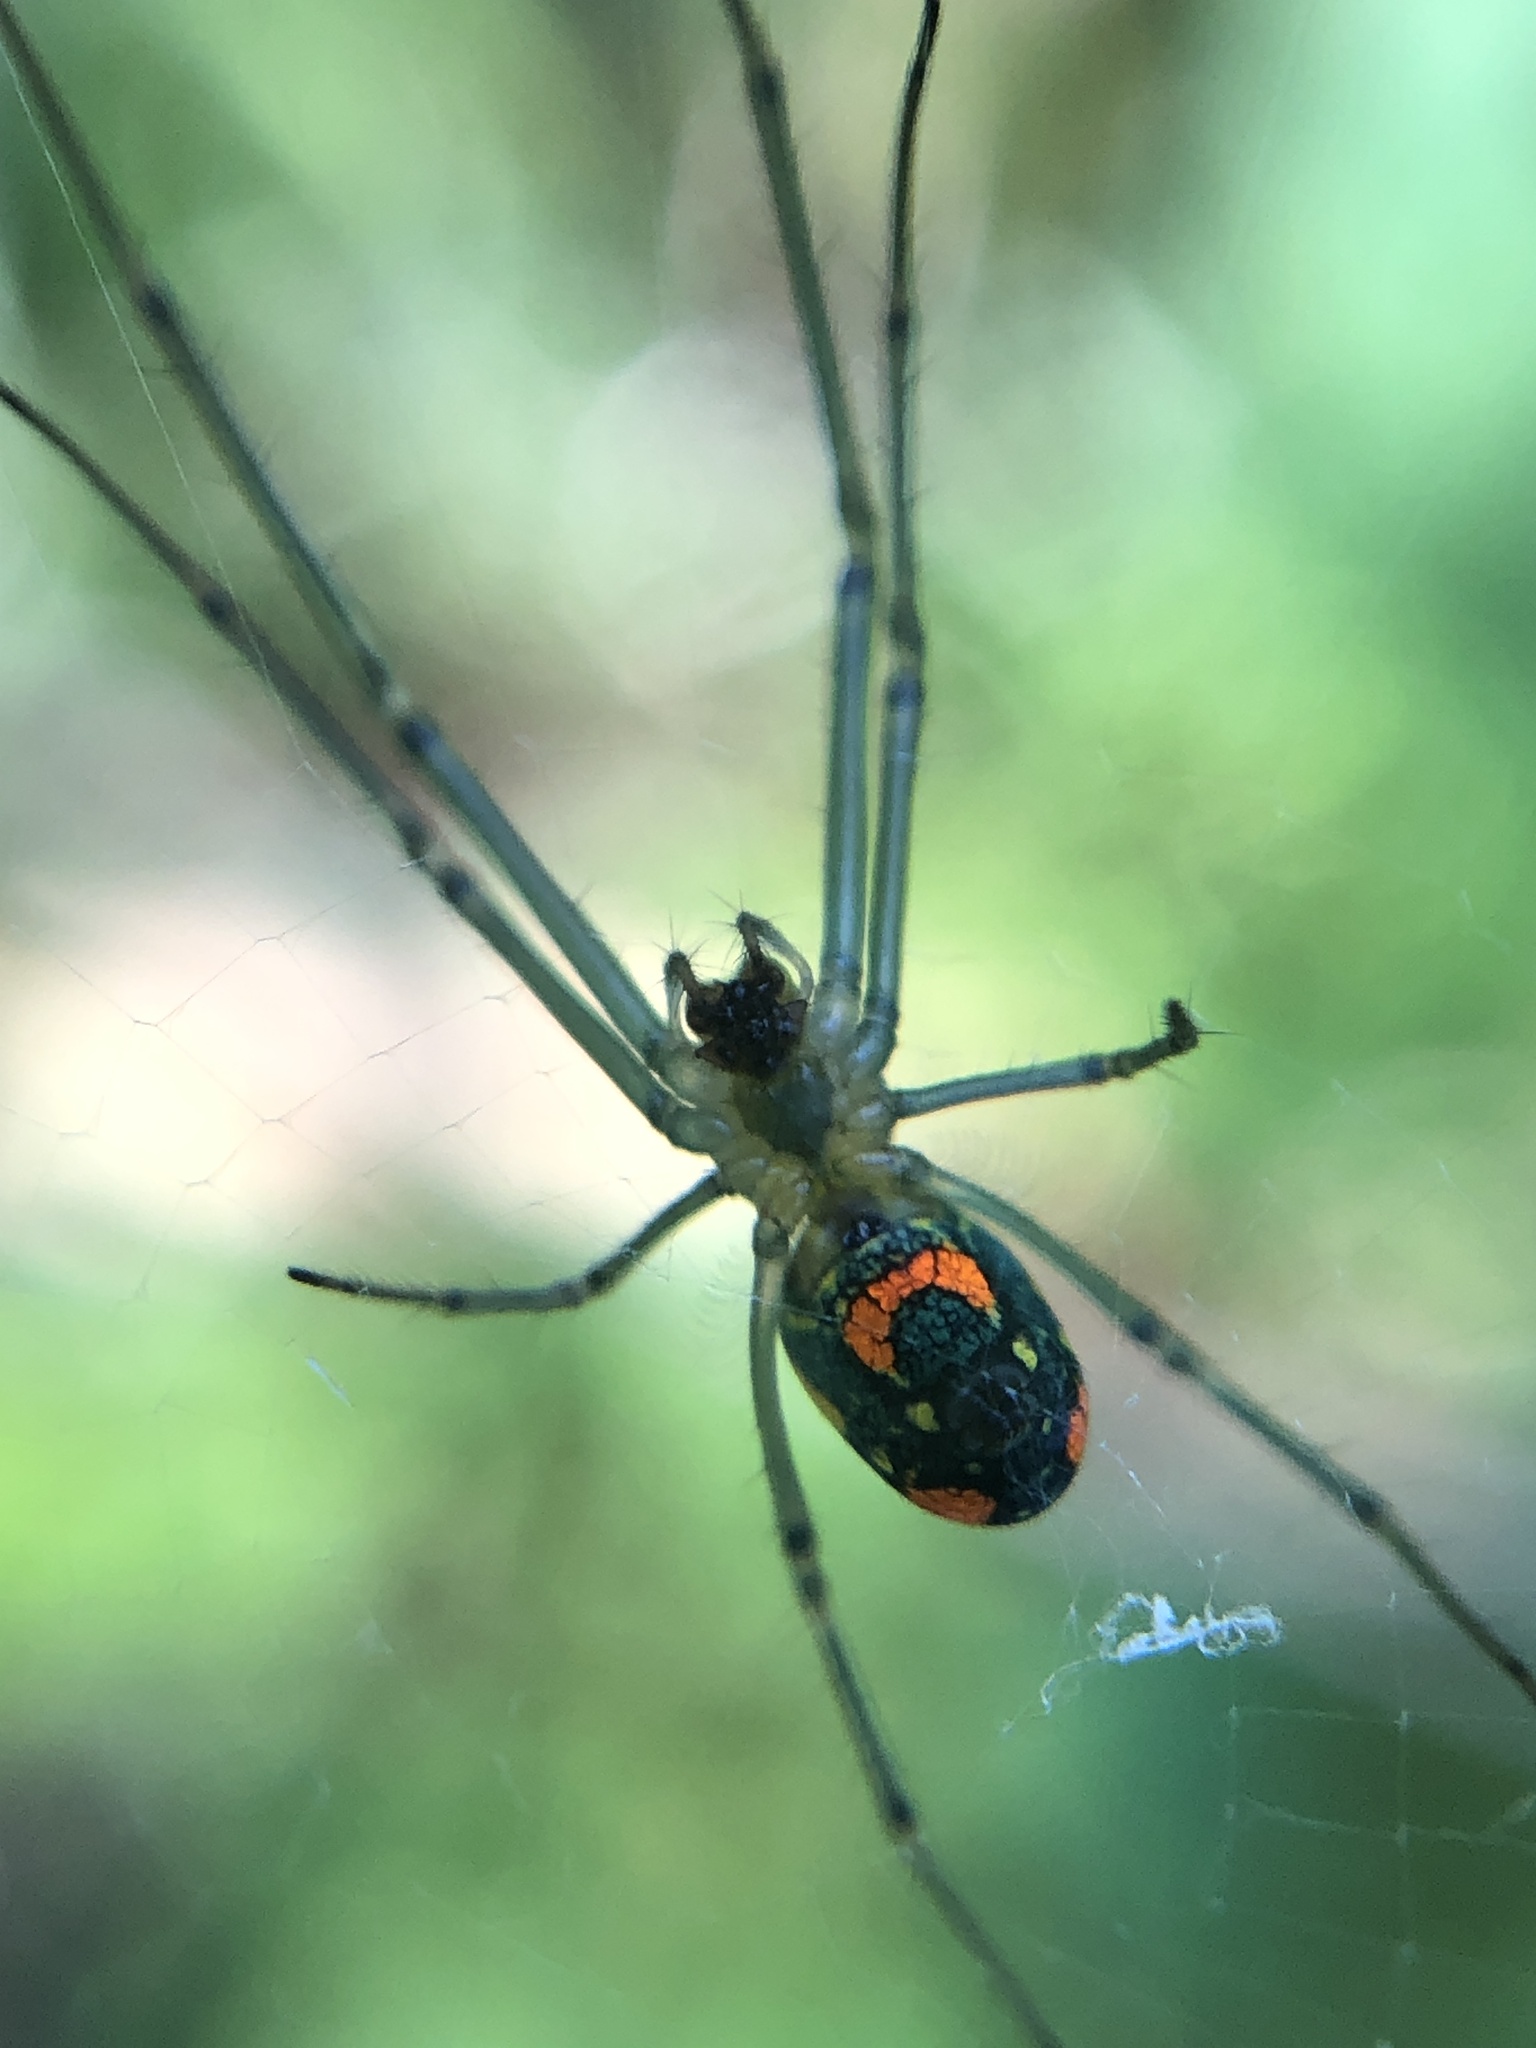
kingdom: Animalia
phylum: Arthropoda
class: Arachnida
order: Araneae
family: Tetragnathidae
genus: Leucauge
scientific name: Leucauge argyrobapta
